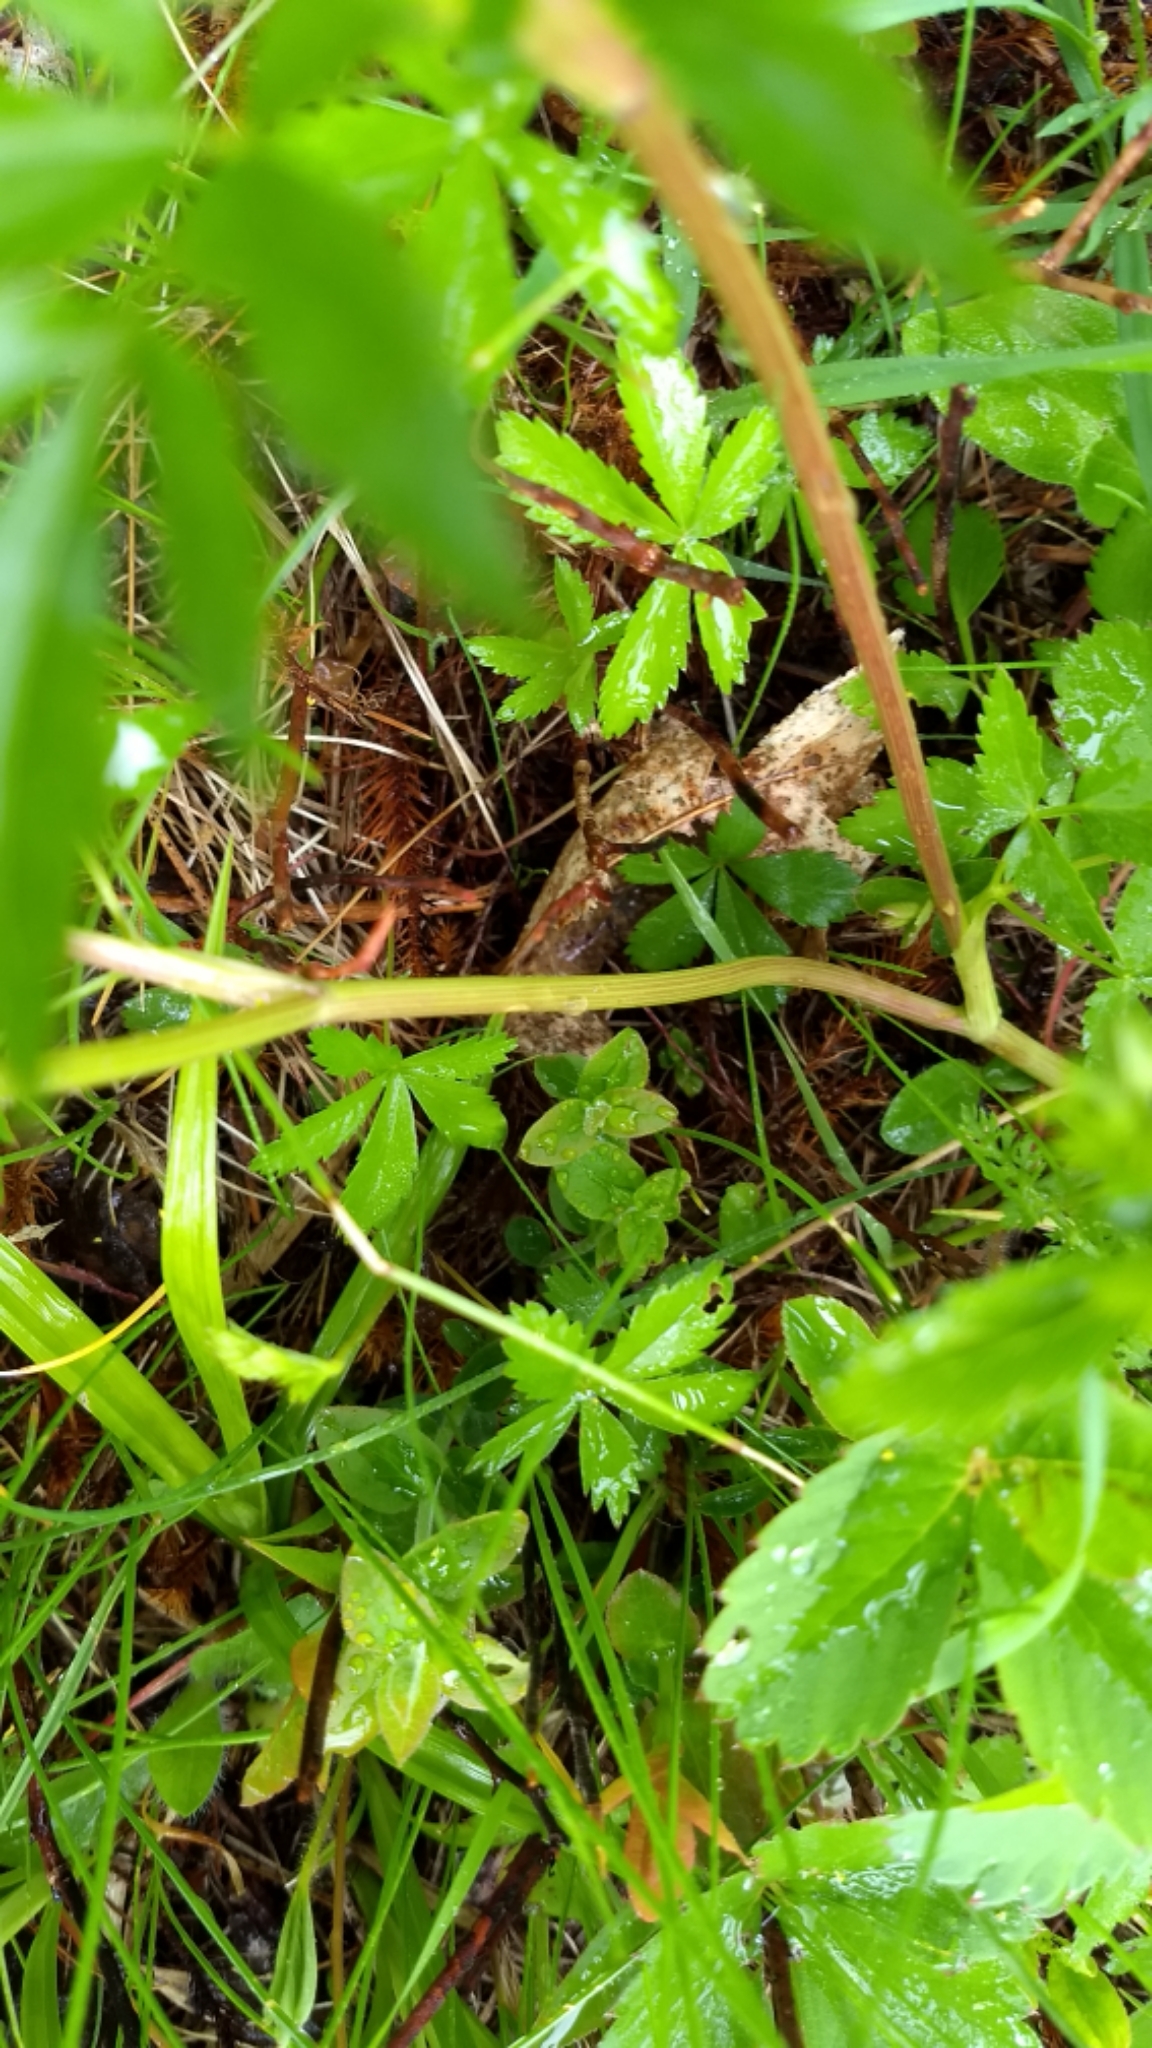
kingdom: Plantae
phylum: Tracheophyta
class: Magnoliopsida
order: Apiales
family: Apiaceae
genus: Zizia
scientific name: Zizia aurea
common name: Golden alexanders
